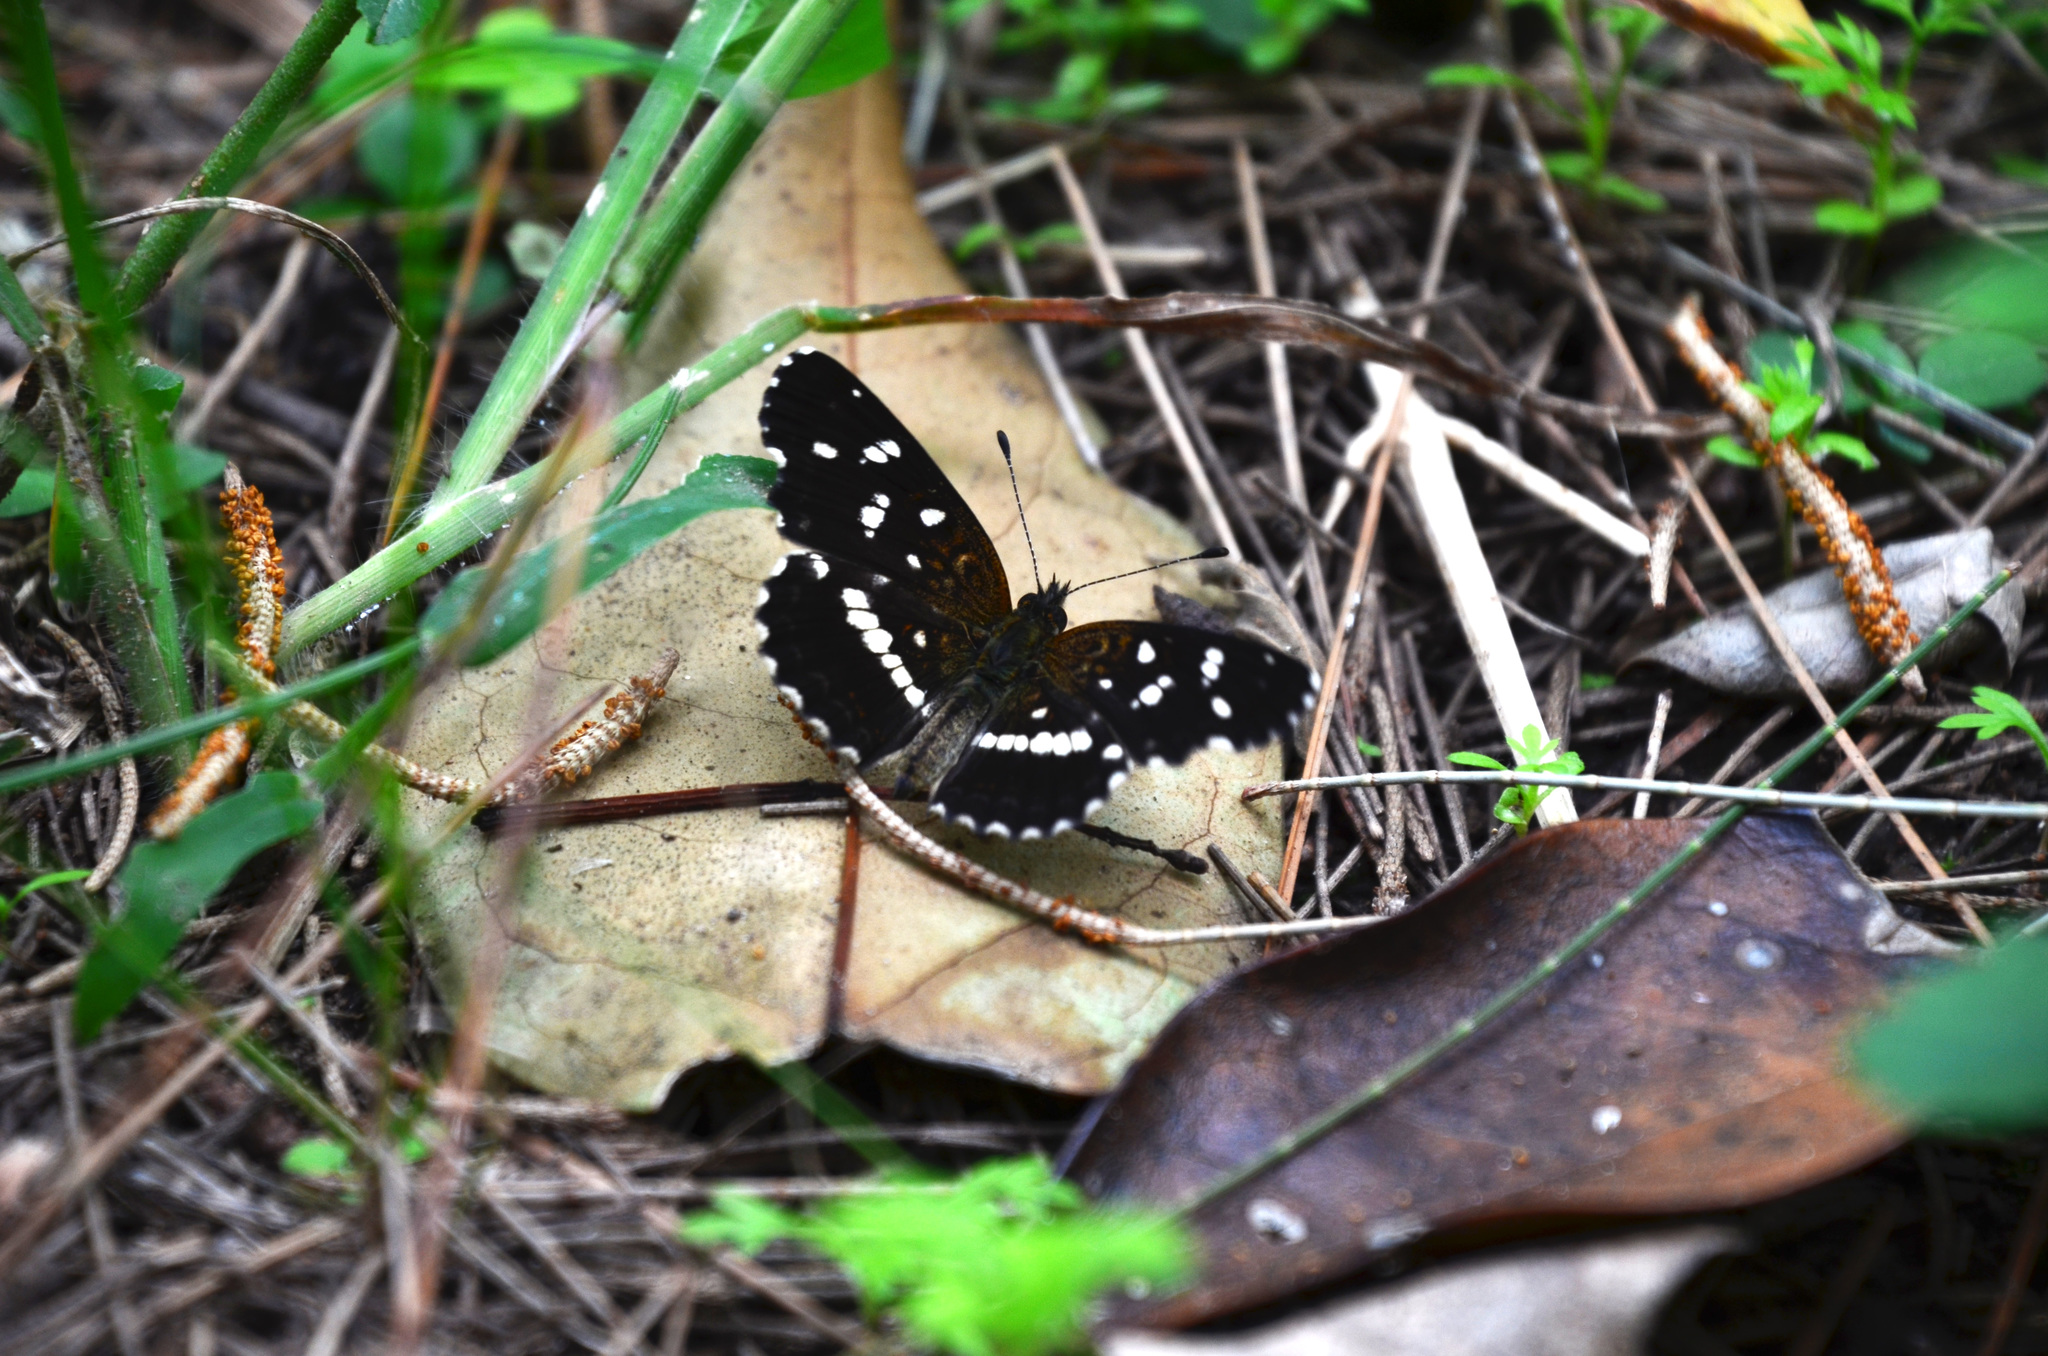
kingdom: Animalia
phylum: Arthropoda
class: Insecta
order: Lepidoptera
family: Nymphalidae
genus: Ortilia
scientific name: Ortilia ithra
